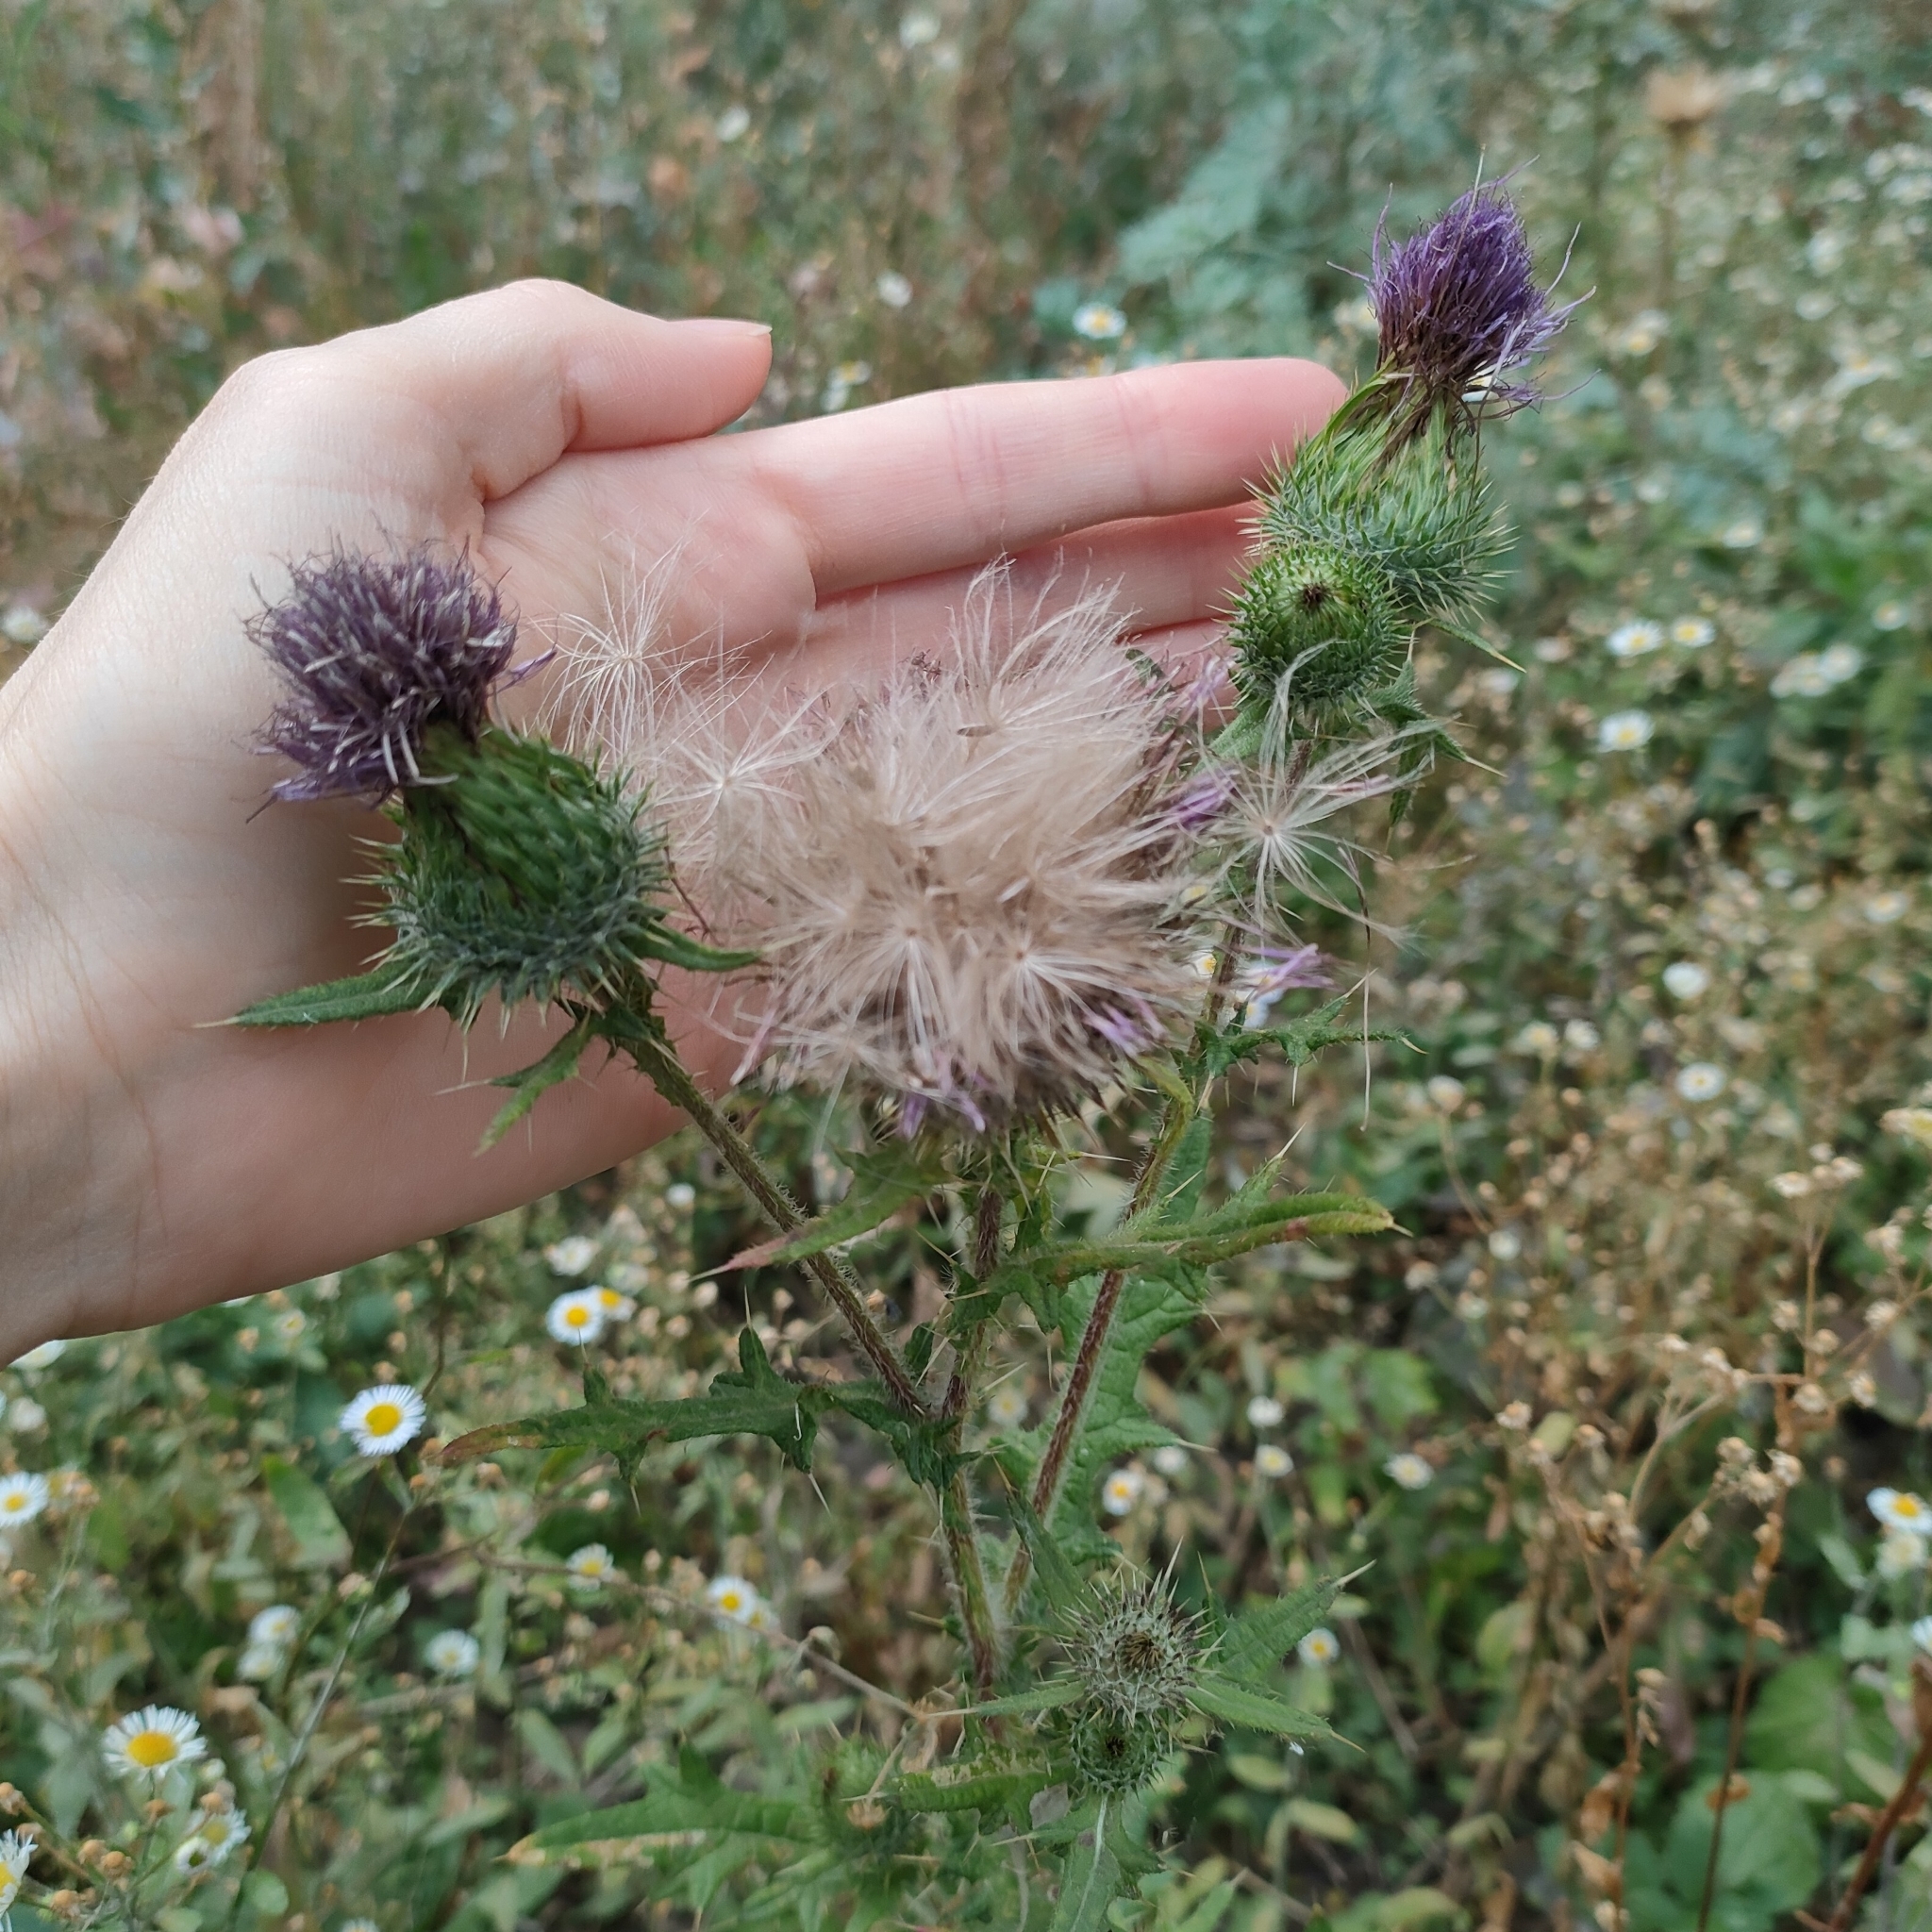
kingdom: Plantae
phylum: Tracheophyta
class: Magnoliopsida
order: Asterales
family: Asteraceae
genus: Cirsium
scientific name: Cirsium vulgare
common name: Bull thistle
